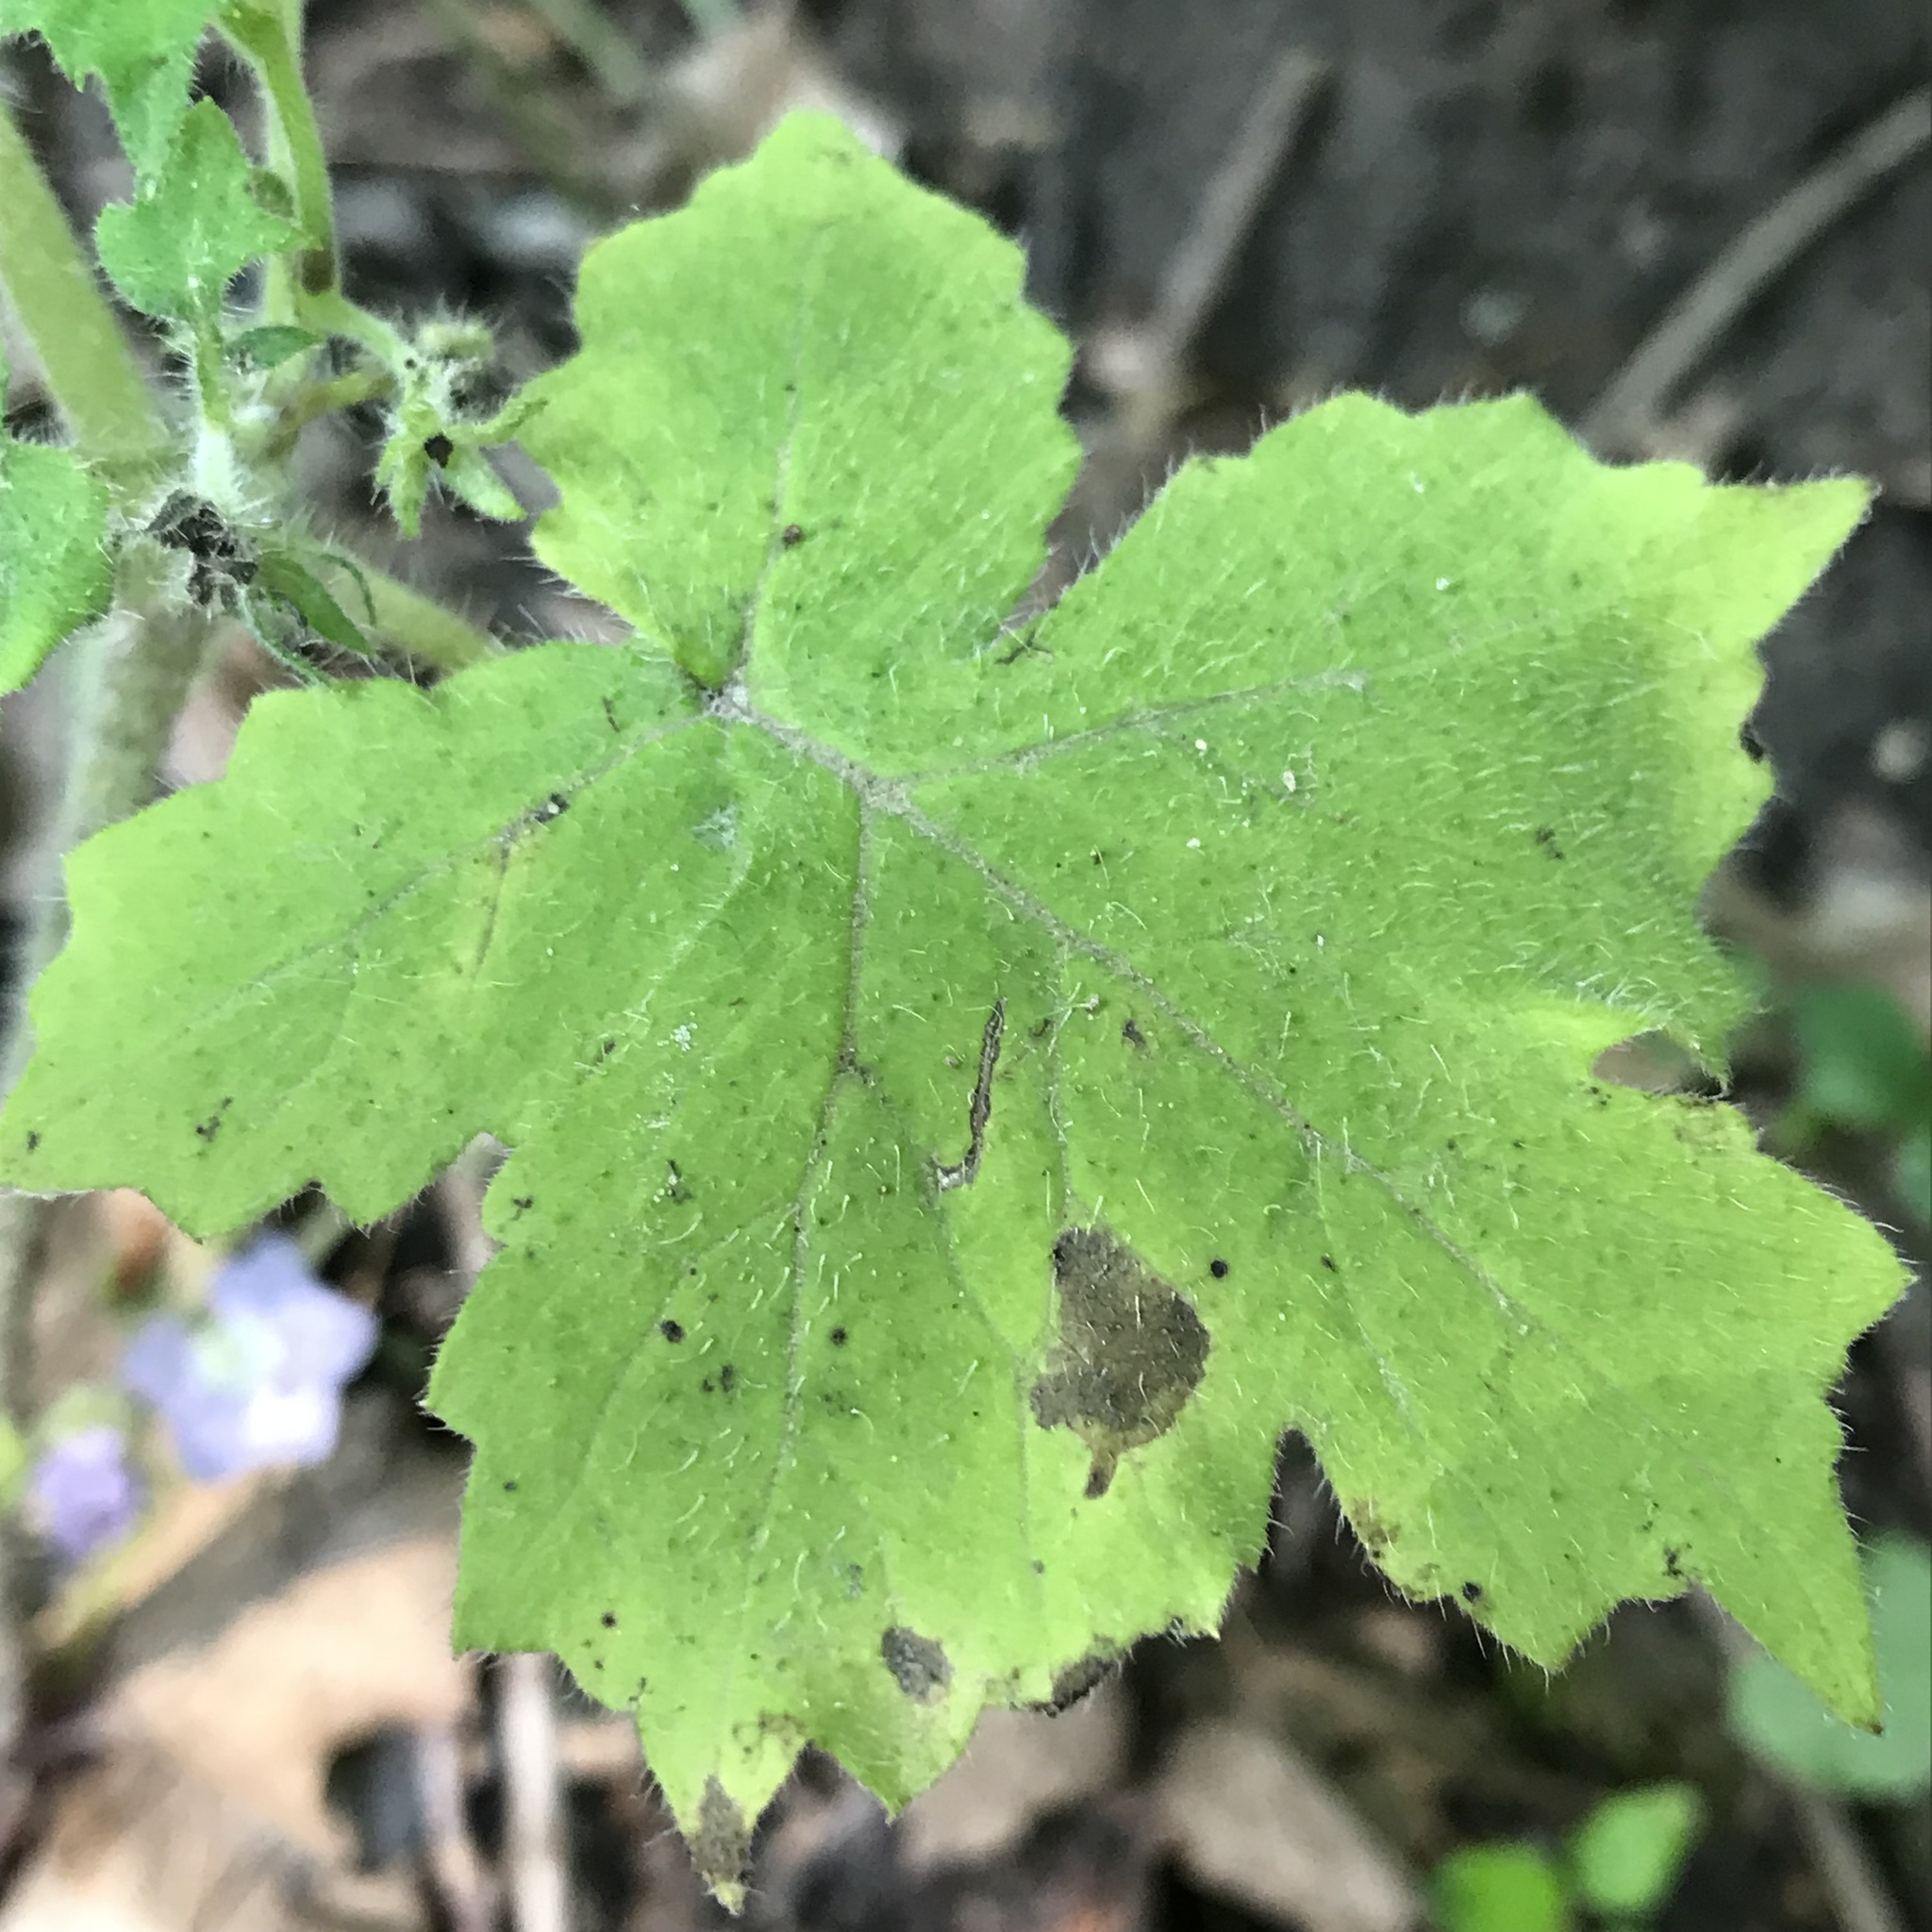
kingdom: Plantae
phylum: Tracheophyta
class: Magnoliopsida
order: Boraginales
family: Hydrophyllaceae
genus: Hydrophyllum
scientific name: Hydrophyllum appendiculatum
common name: Appendaged waterleaf
